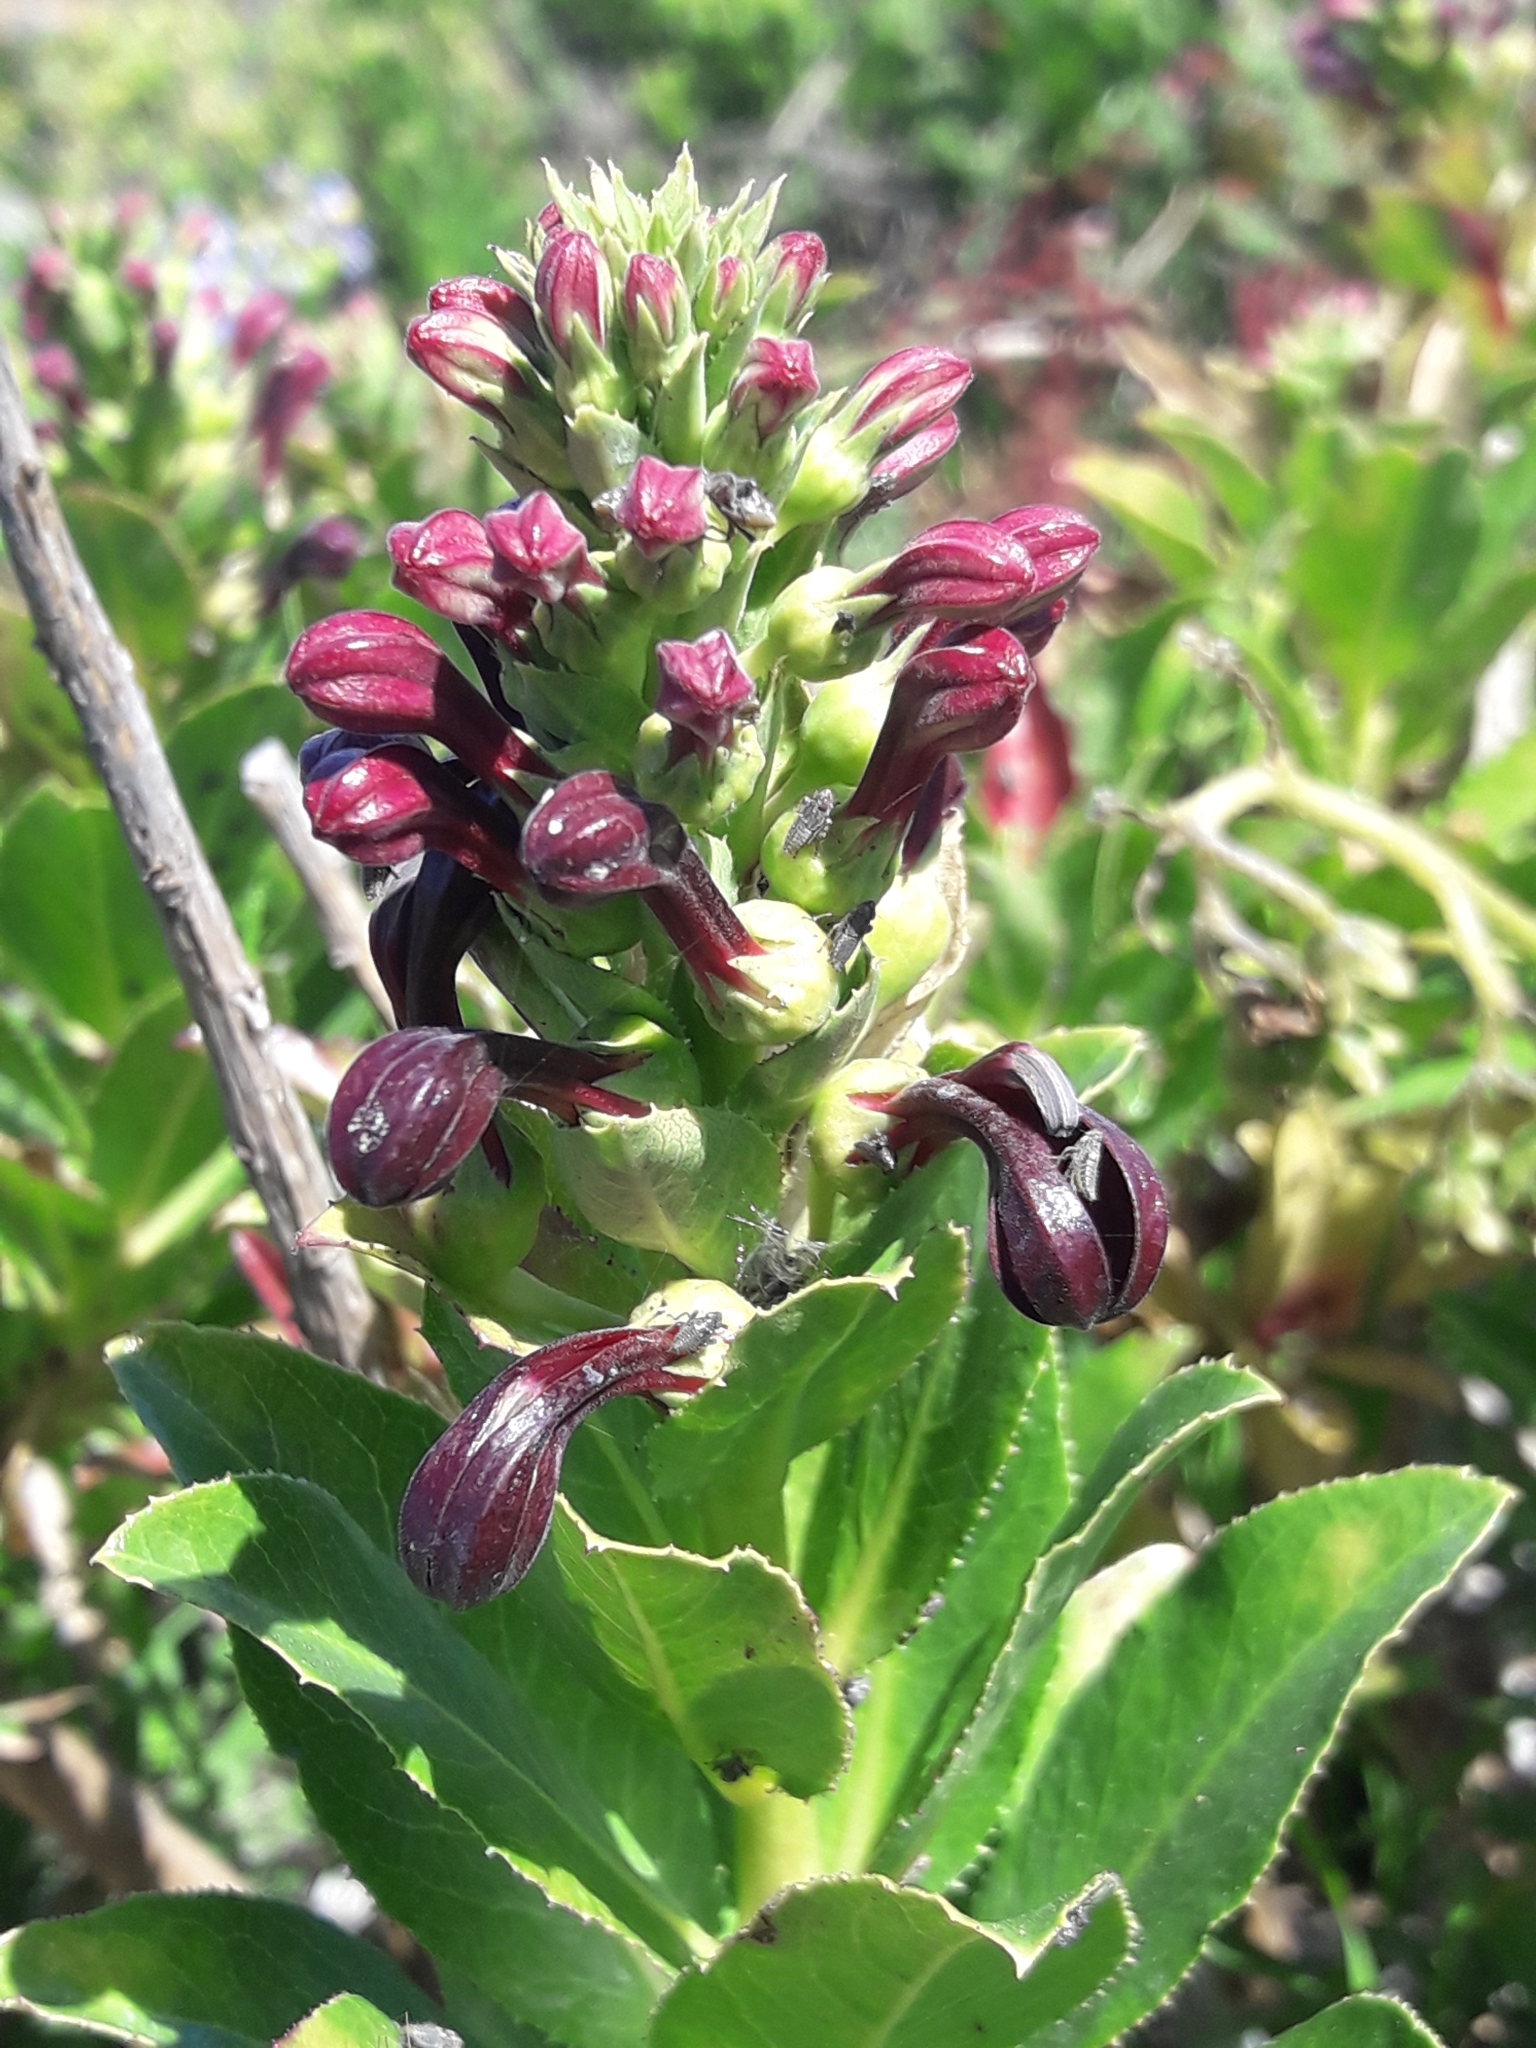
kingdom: Plantae
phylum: Tracheophyta
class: Magnoliopsida
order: Asterales
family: Campanulaceae
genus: Lobelia
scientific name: Lobelia polyphylla
